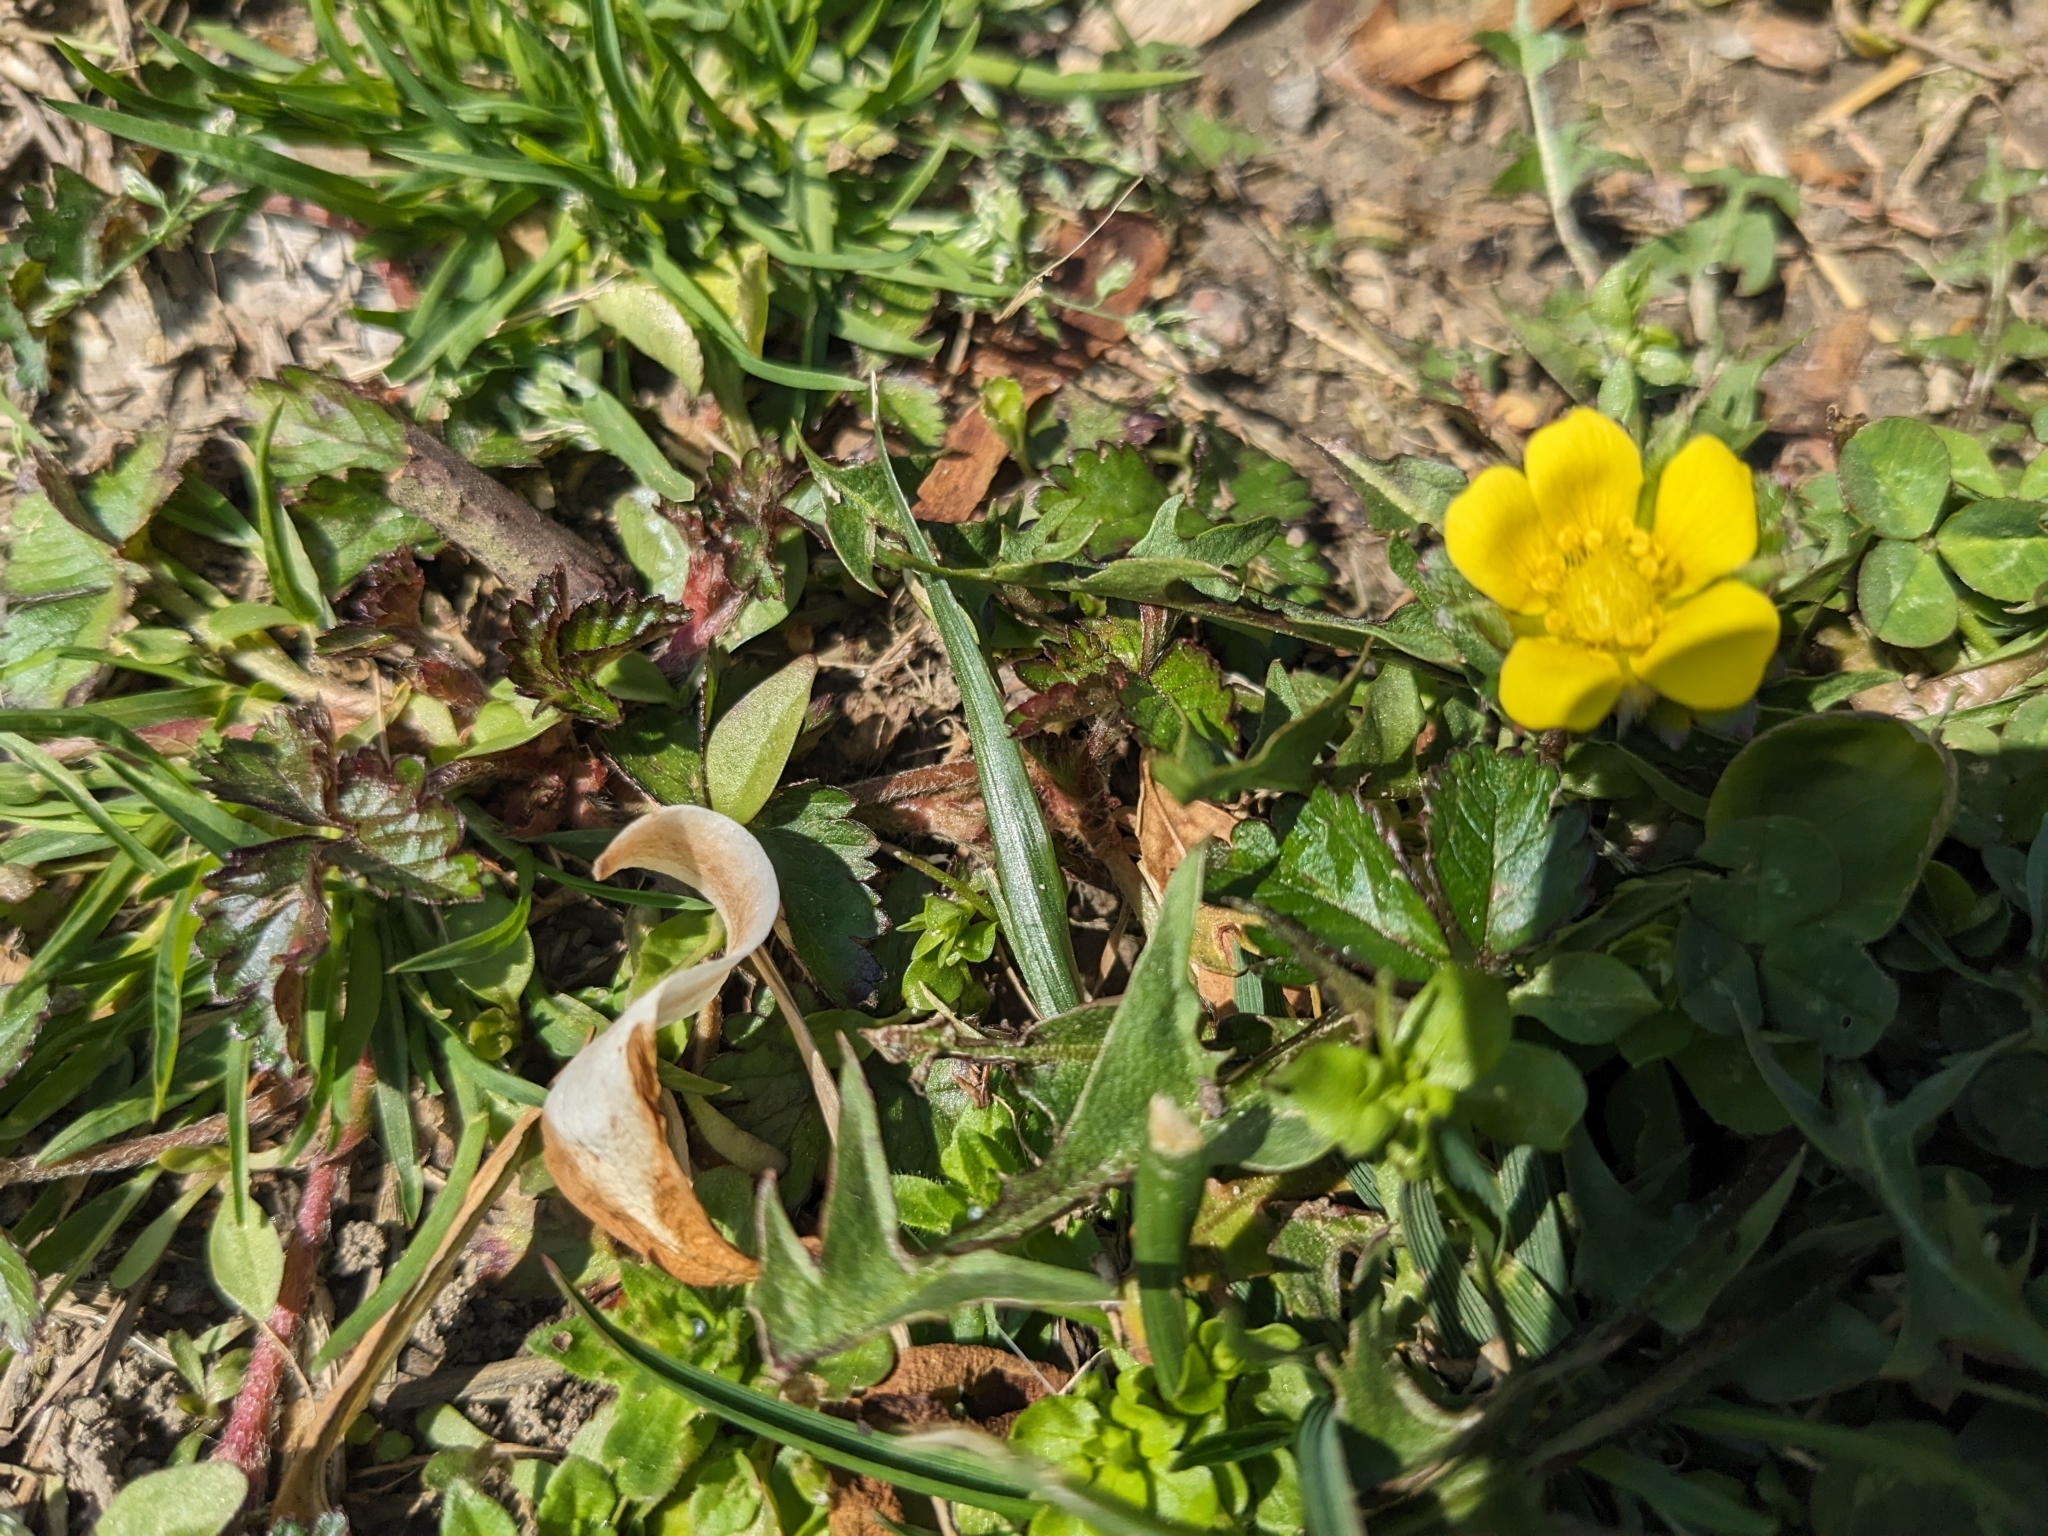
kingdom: Plantae
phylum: Tracheophyta
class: Magnoliopsida
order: Rosales
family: Rosaceae
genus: Potentilla
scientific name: Potentilla indica
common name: Yellow-flowered strawberry
